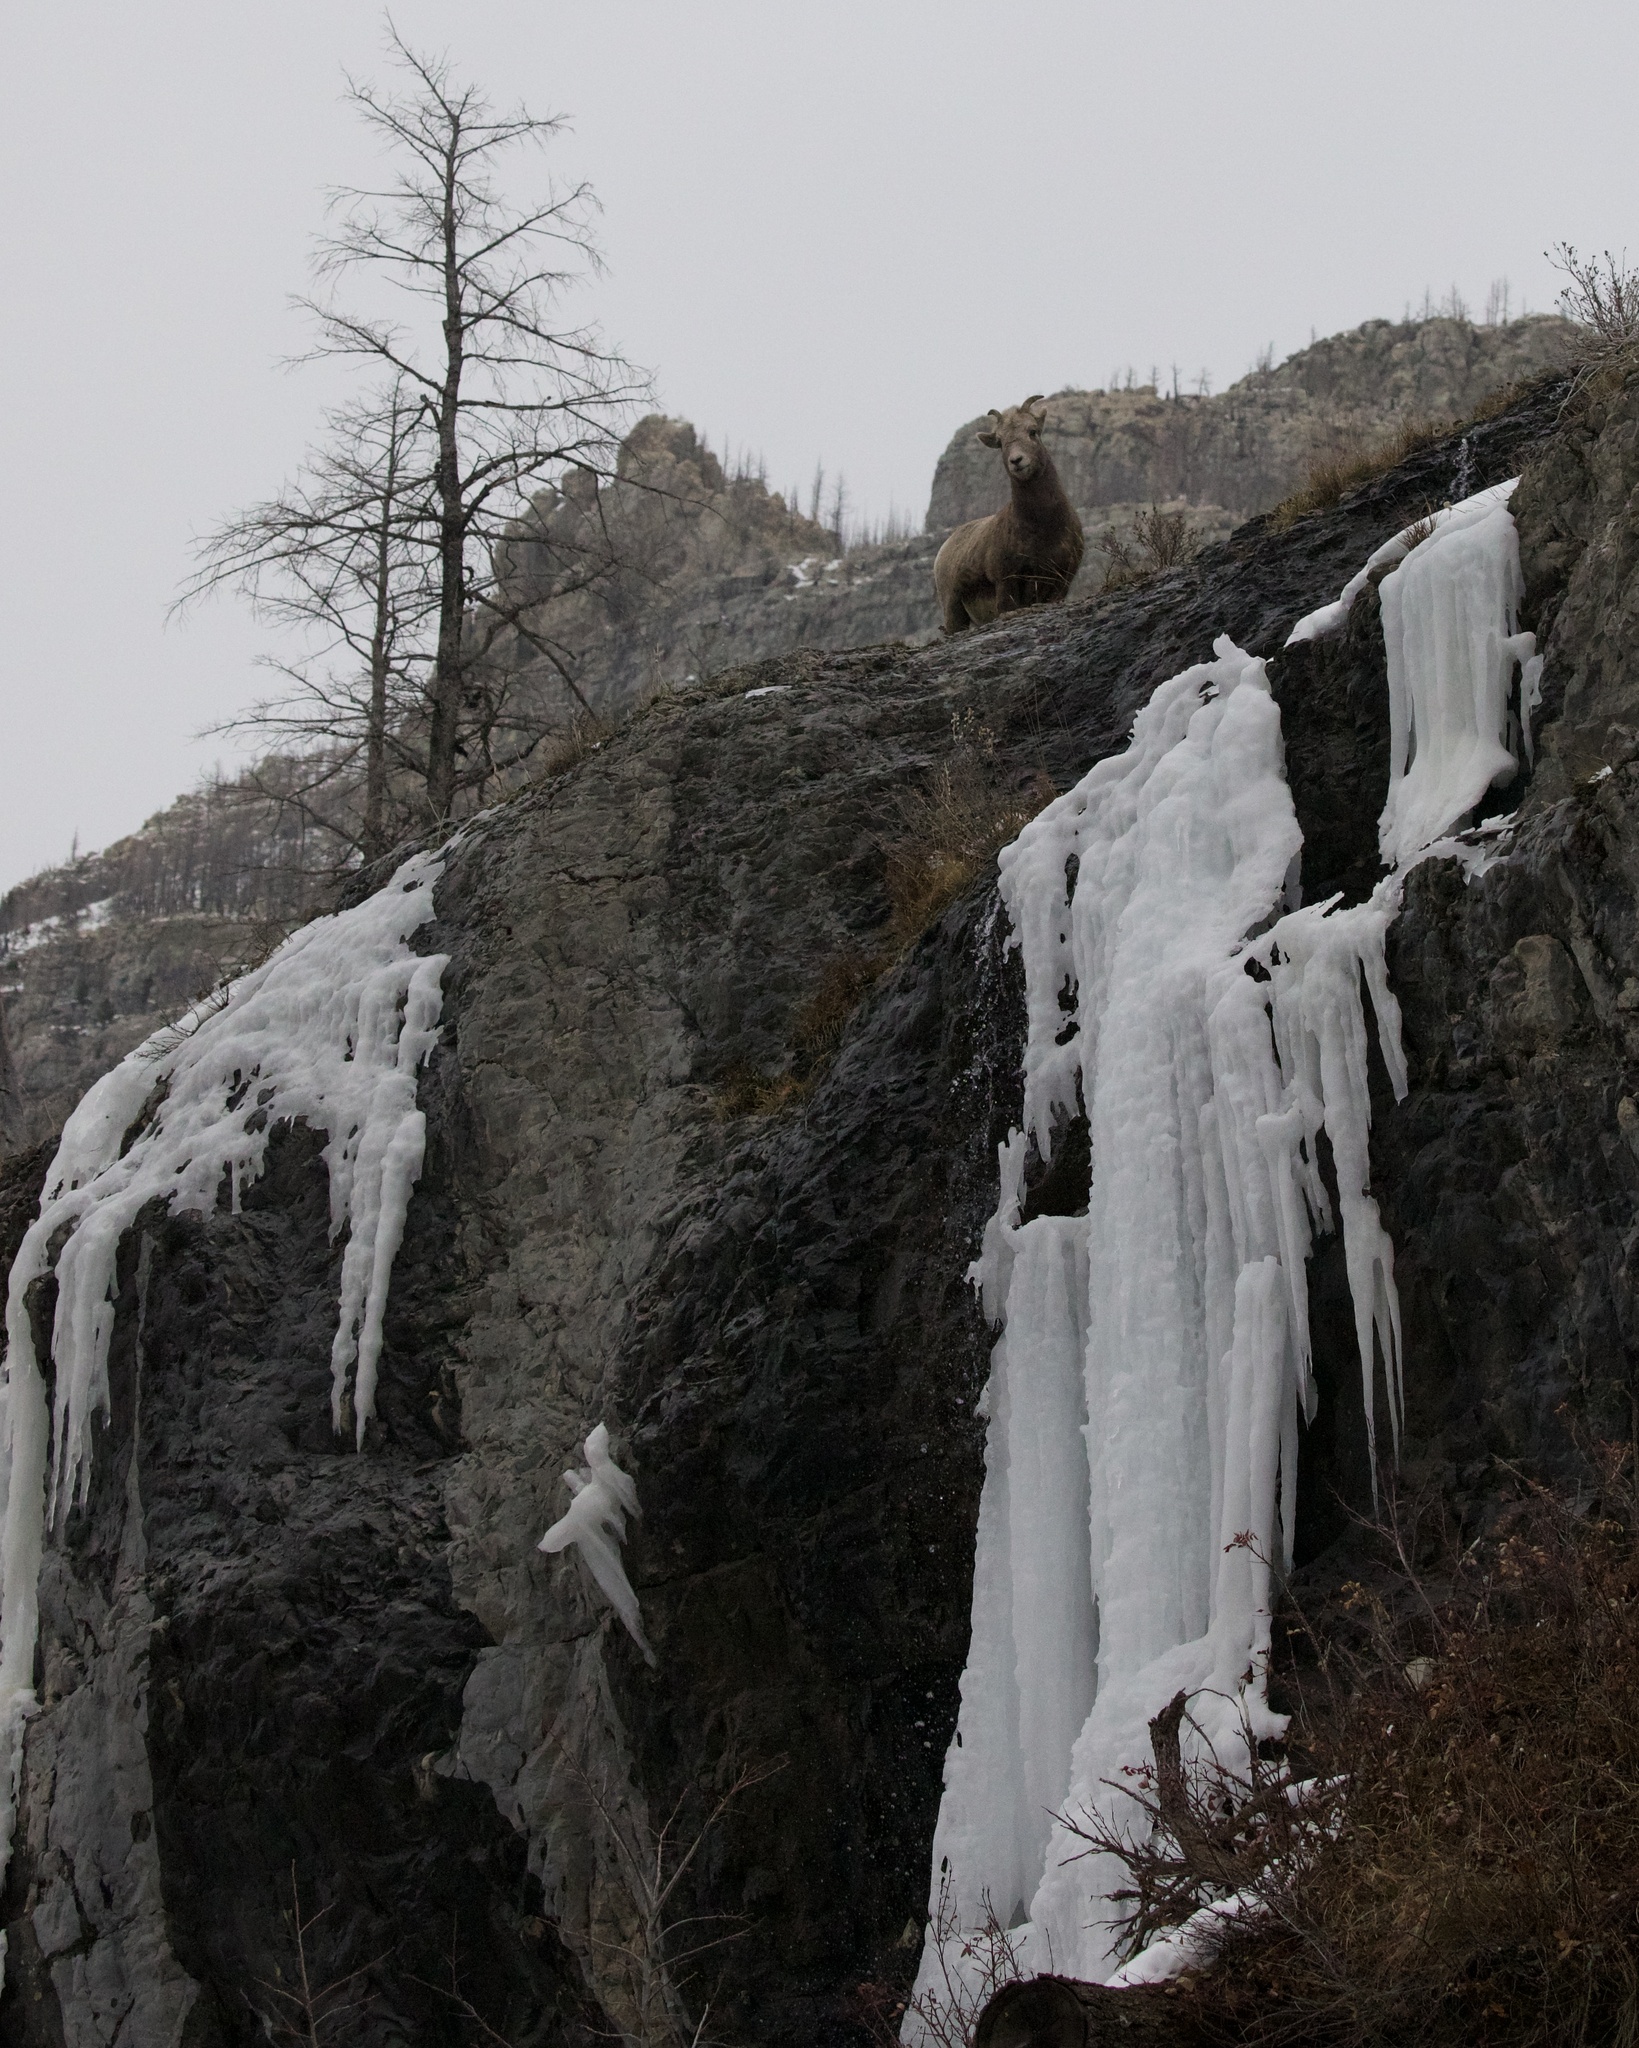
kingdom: Animalia
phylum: Chordata
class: Mammalia
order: Artiodactyla
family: Bovidae
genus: Ovis
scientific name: Ovis canadensis
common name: Bighorn sheep
